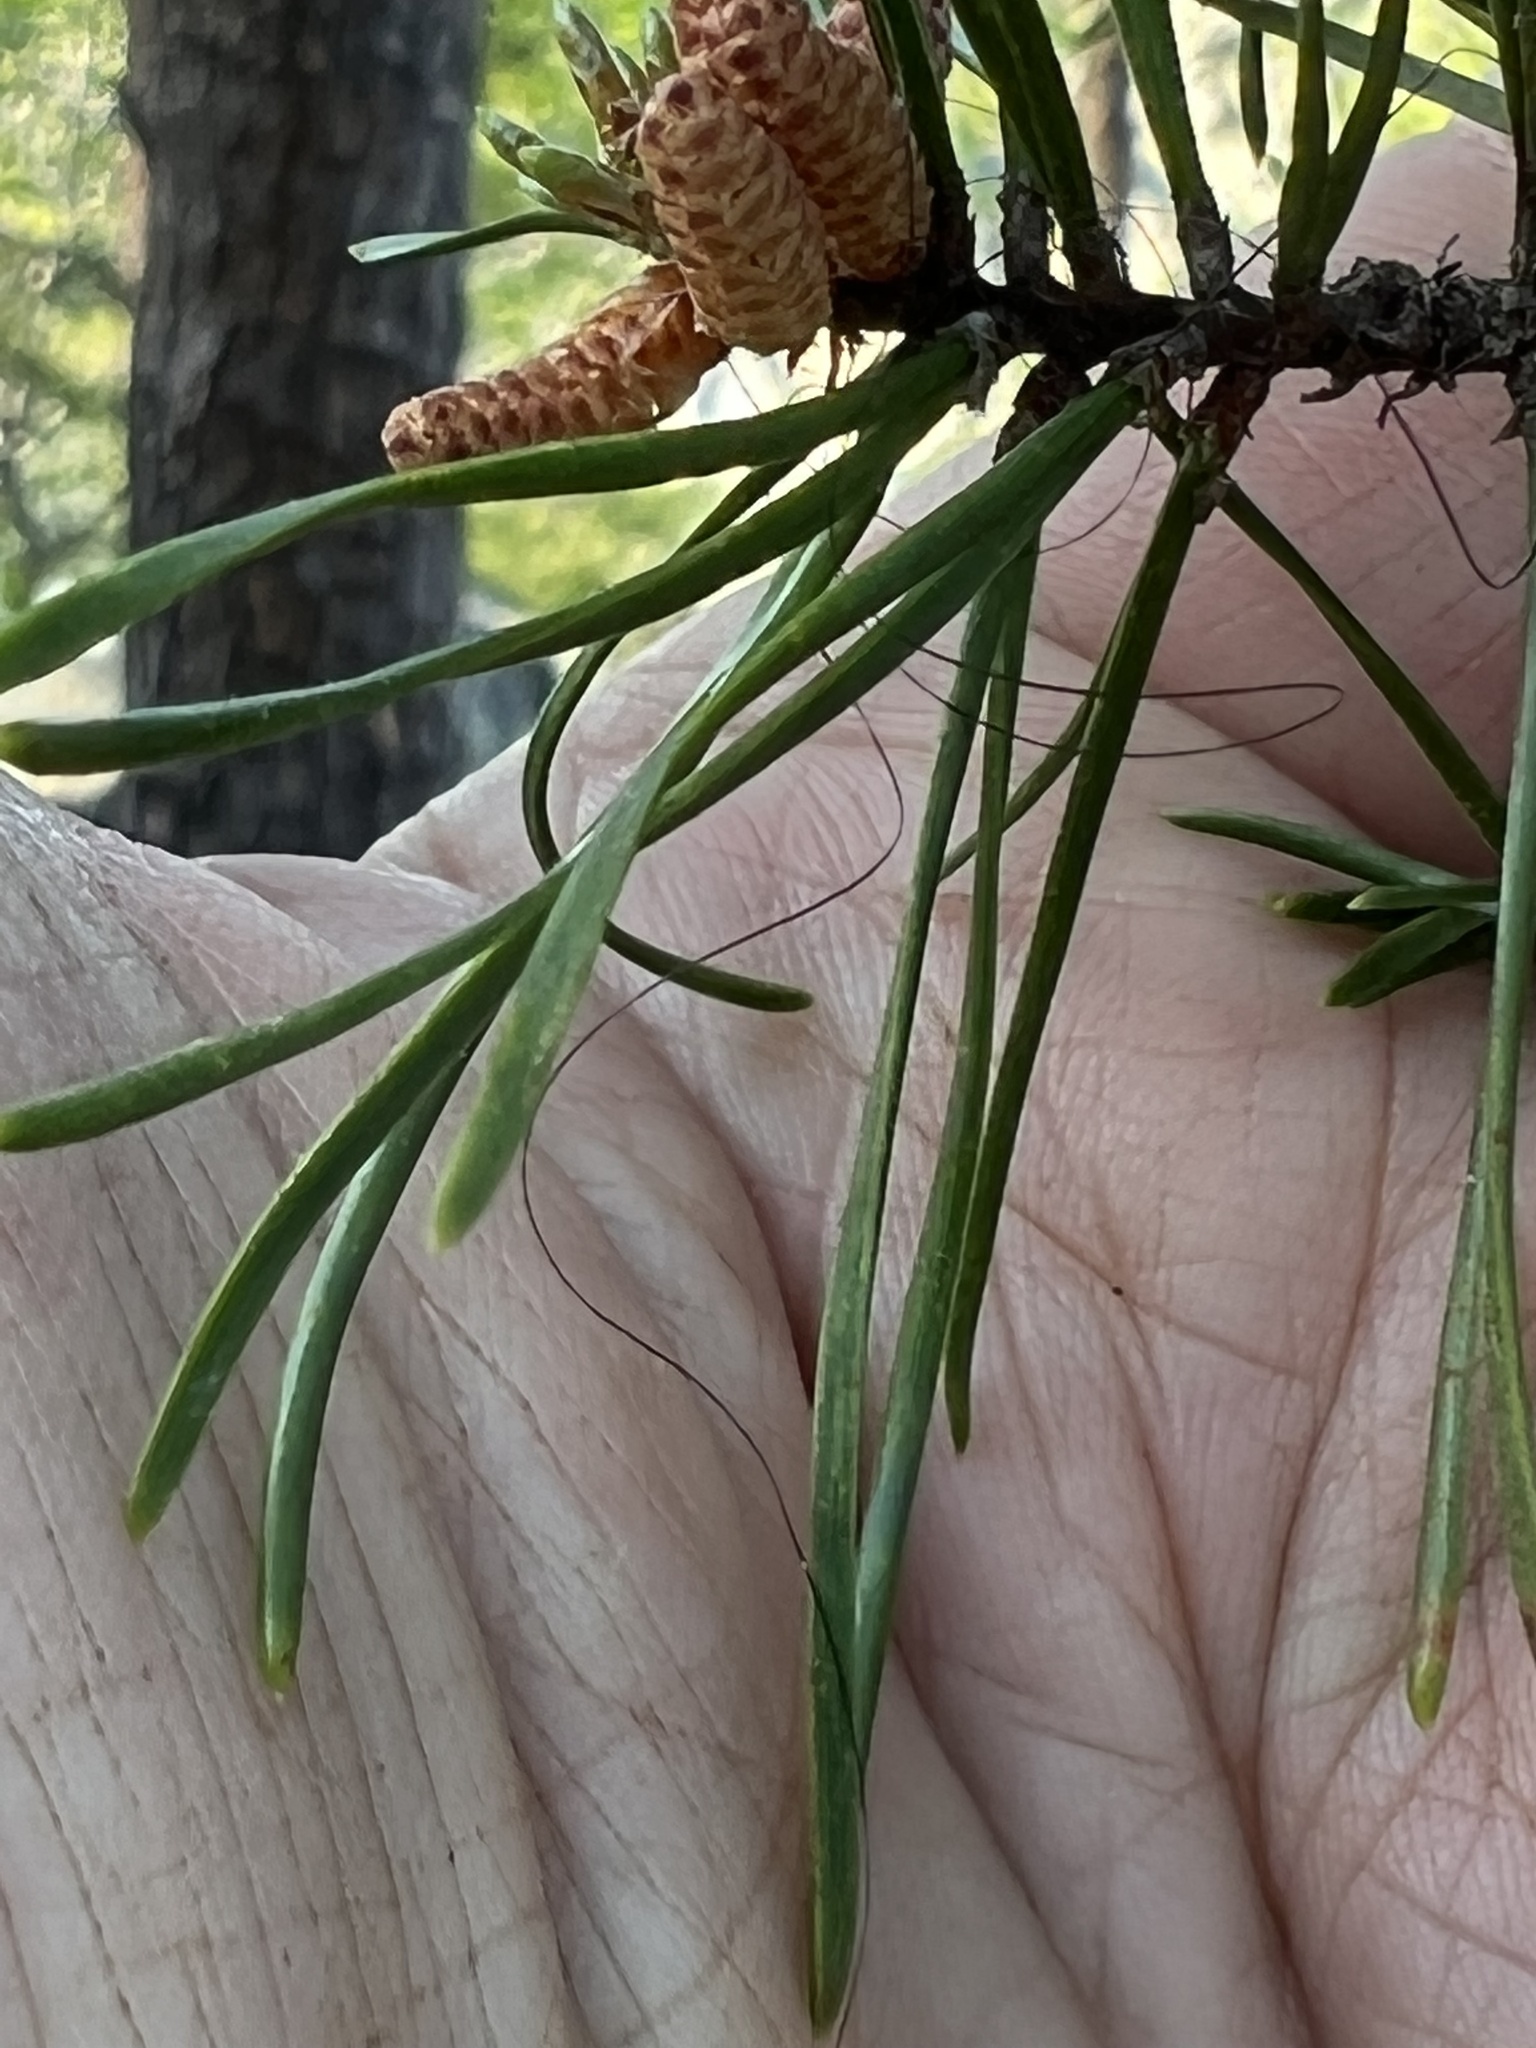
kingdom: Plantae
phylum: Tracheophyta
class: Pinopsida
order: Pinales
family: Pinaceae
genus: Pinus
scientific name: Pinus virginiana
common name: Scrub pine
